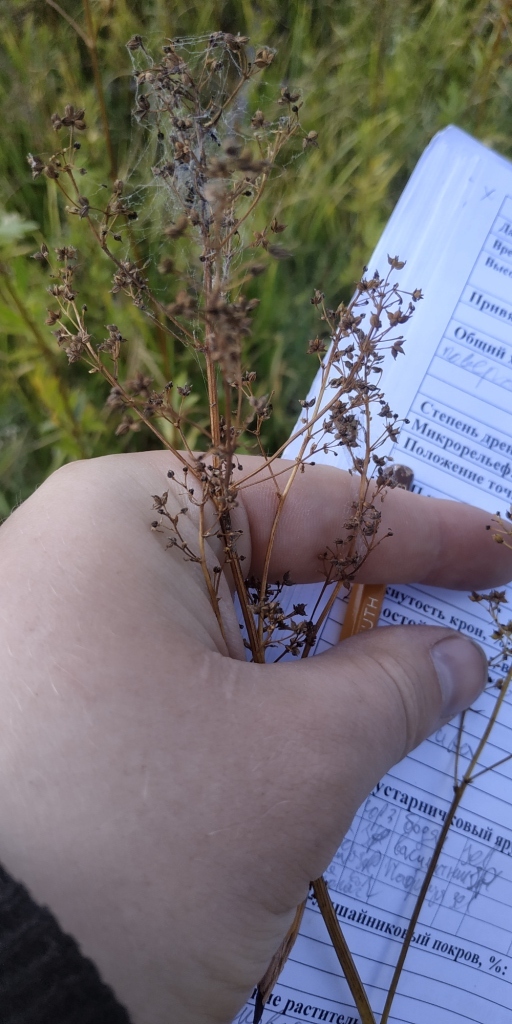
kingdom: Plantae
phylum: Tracheophyta
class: Magnoliopsida
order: Ranunculales
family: Ranunculaceae
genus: Thalictrum
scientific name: Thalictrum simplex
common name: Small meadow-rue
